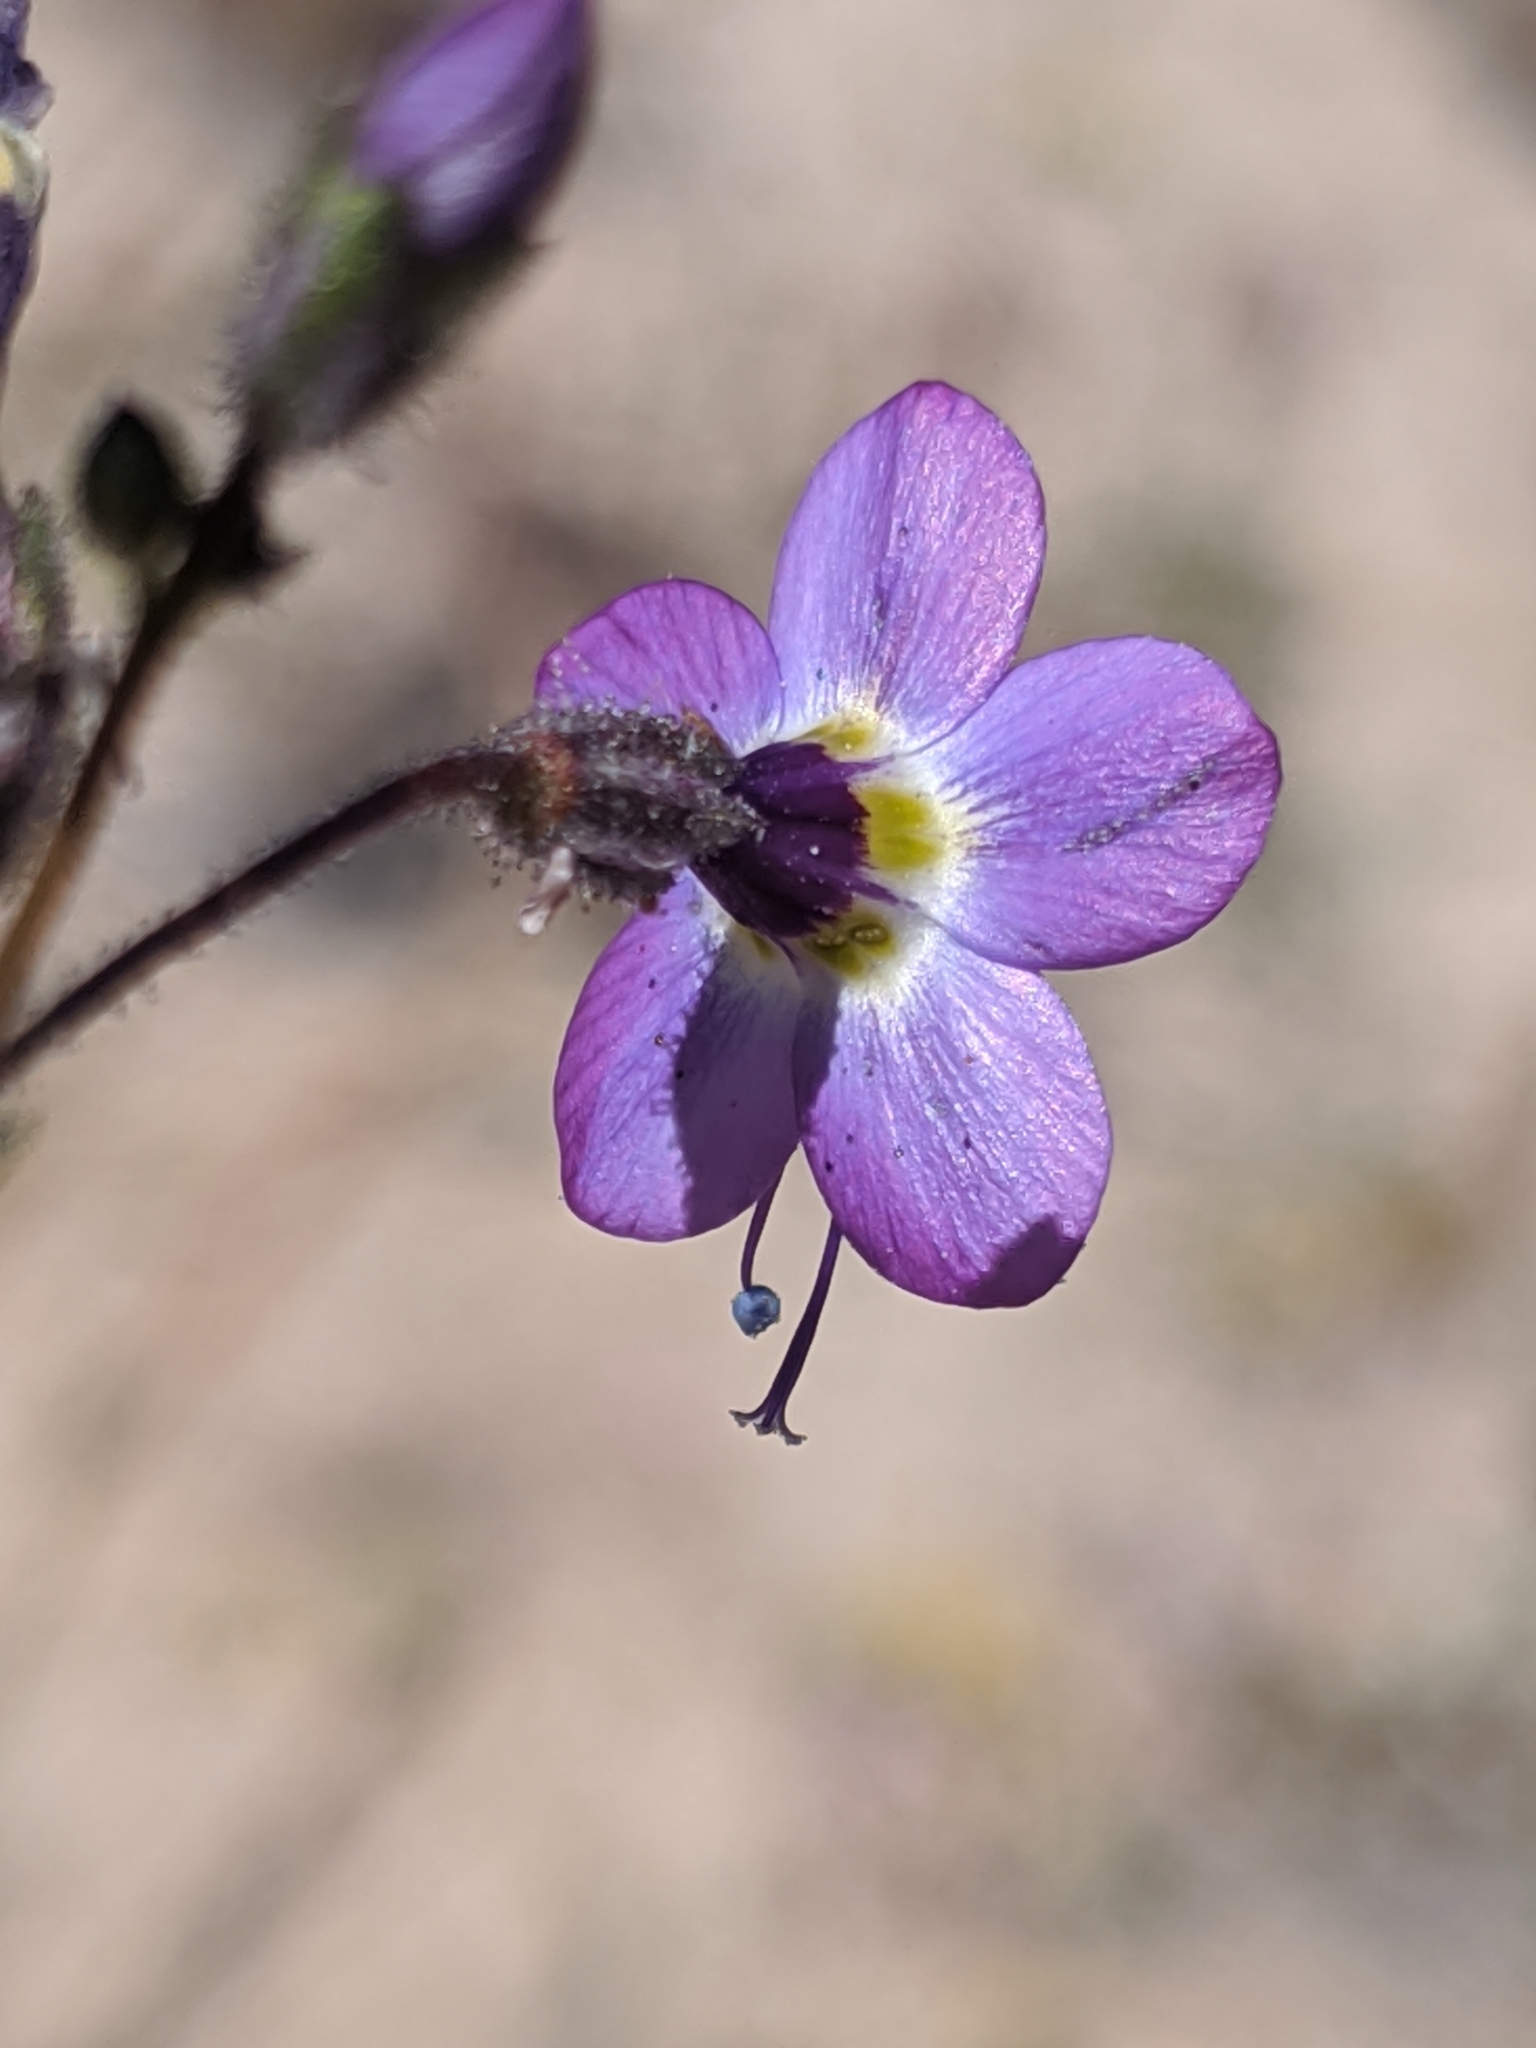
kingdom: Plantae
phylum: Tracheophyta
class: Magnoliopsida
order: Ericales
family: Polemoniaceae
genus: Gilia
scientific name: Gilia brecciarum
